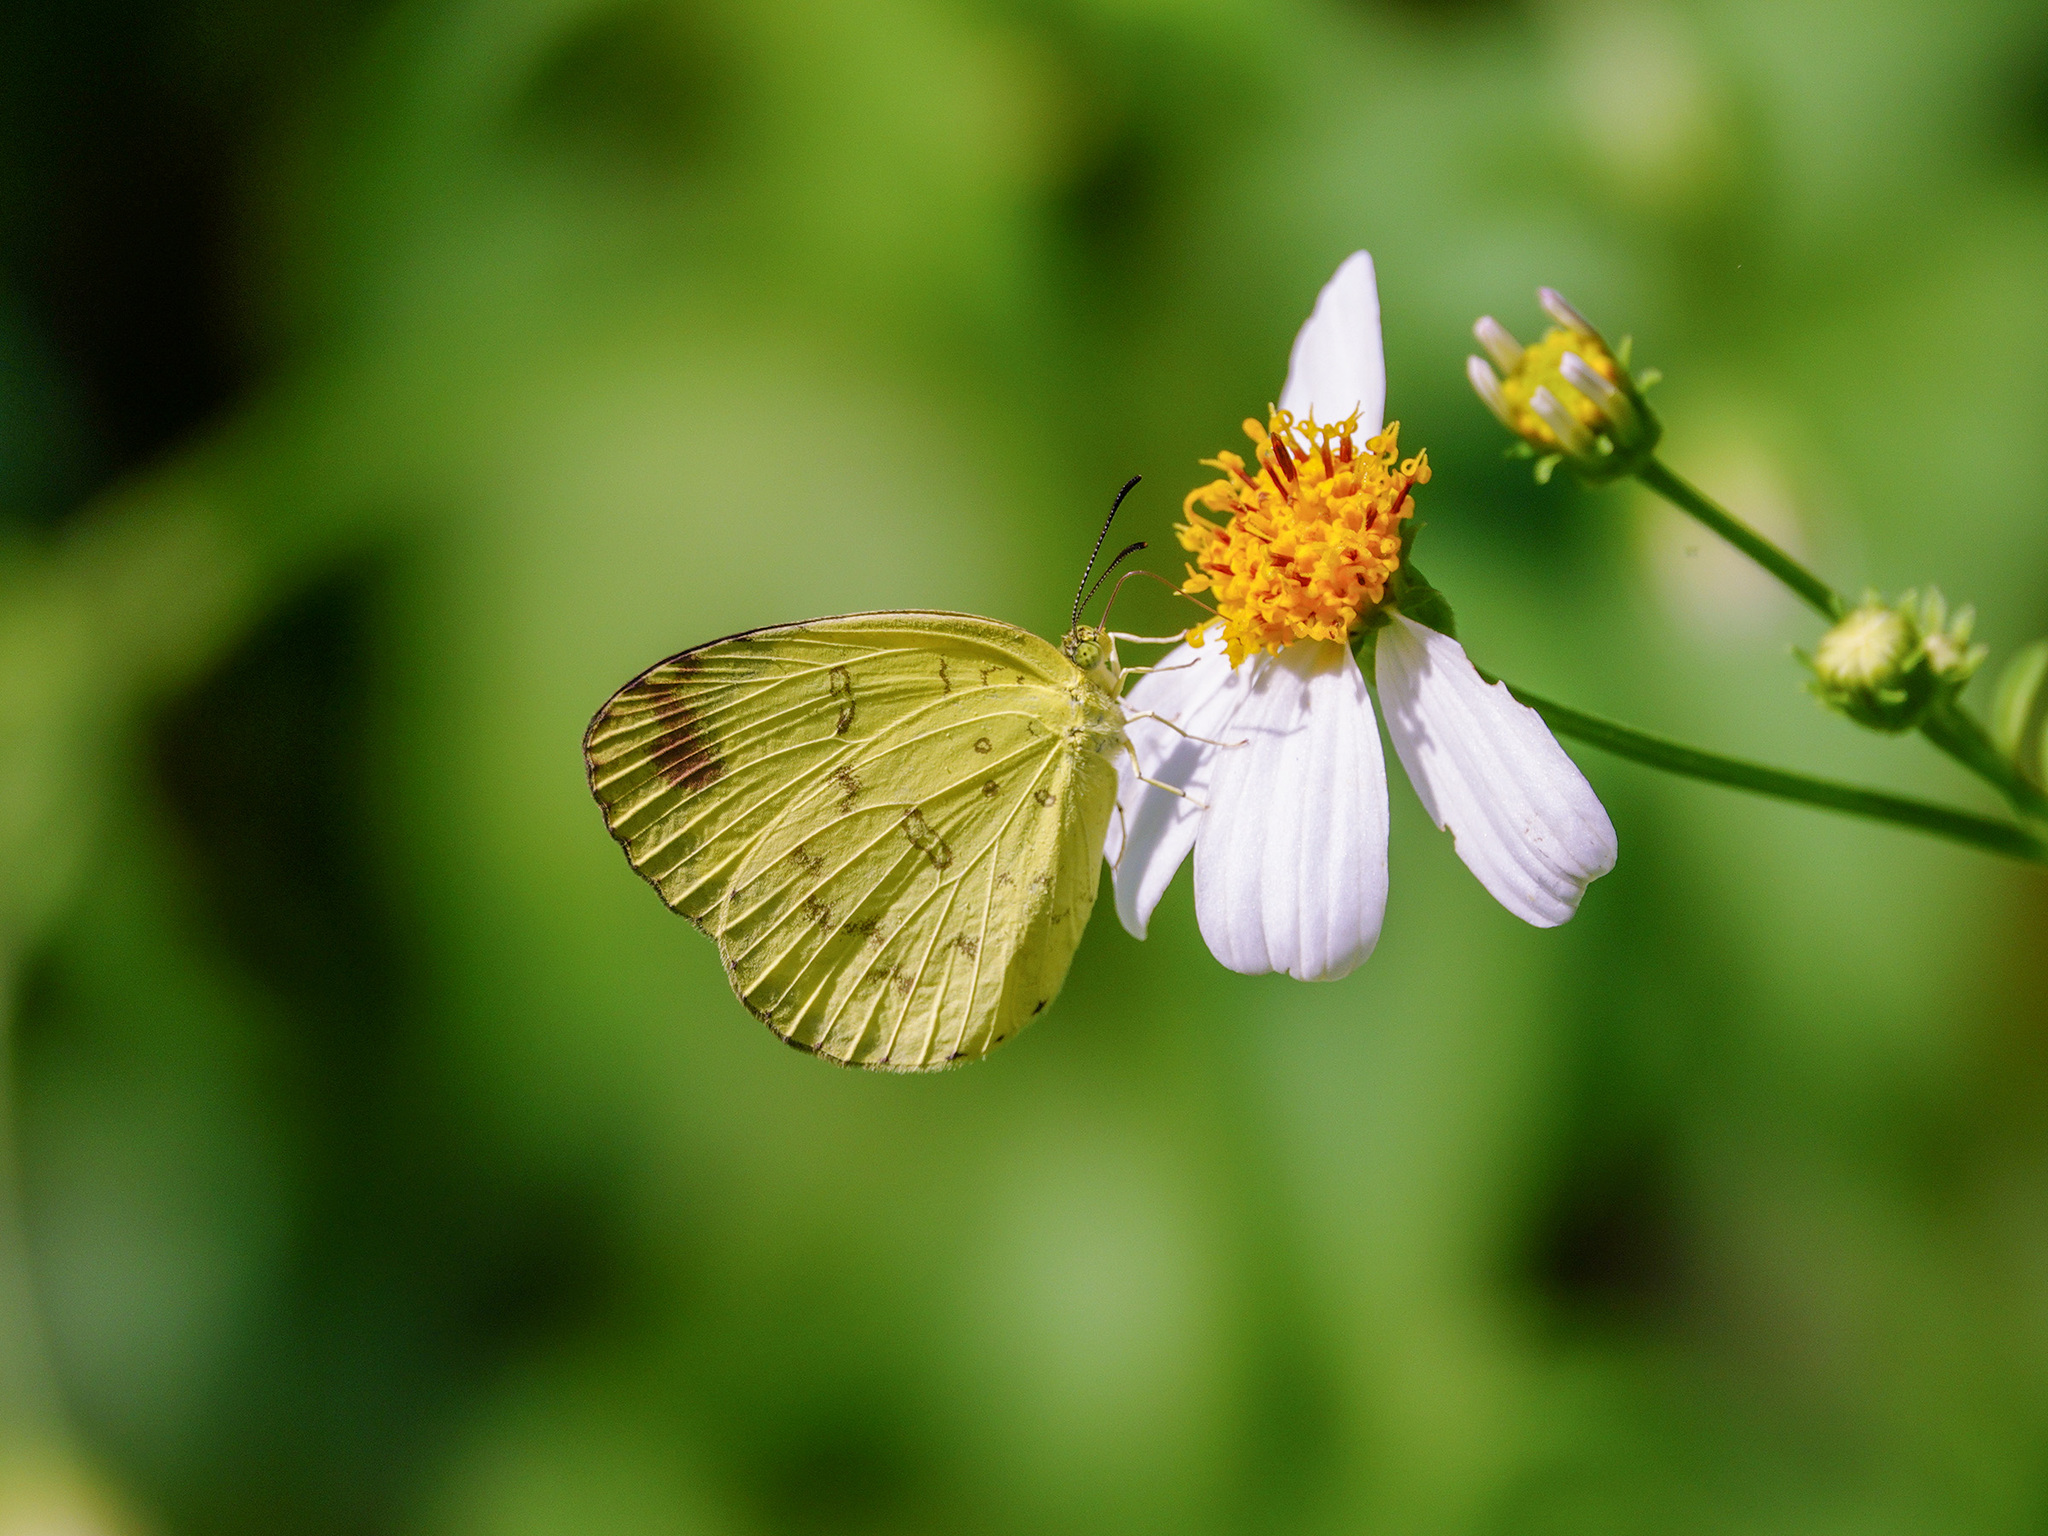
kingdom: Animalia
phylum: Arthropoda
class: Insecta
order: Lepidoptera
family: Pieridae
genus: Eurema
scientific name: Eurema blanda
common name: Three-spot grass yellow
